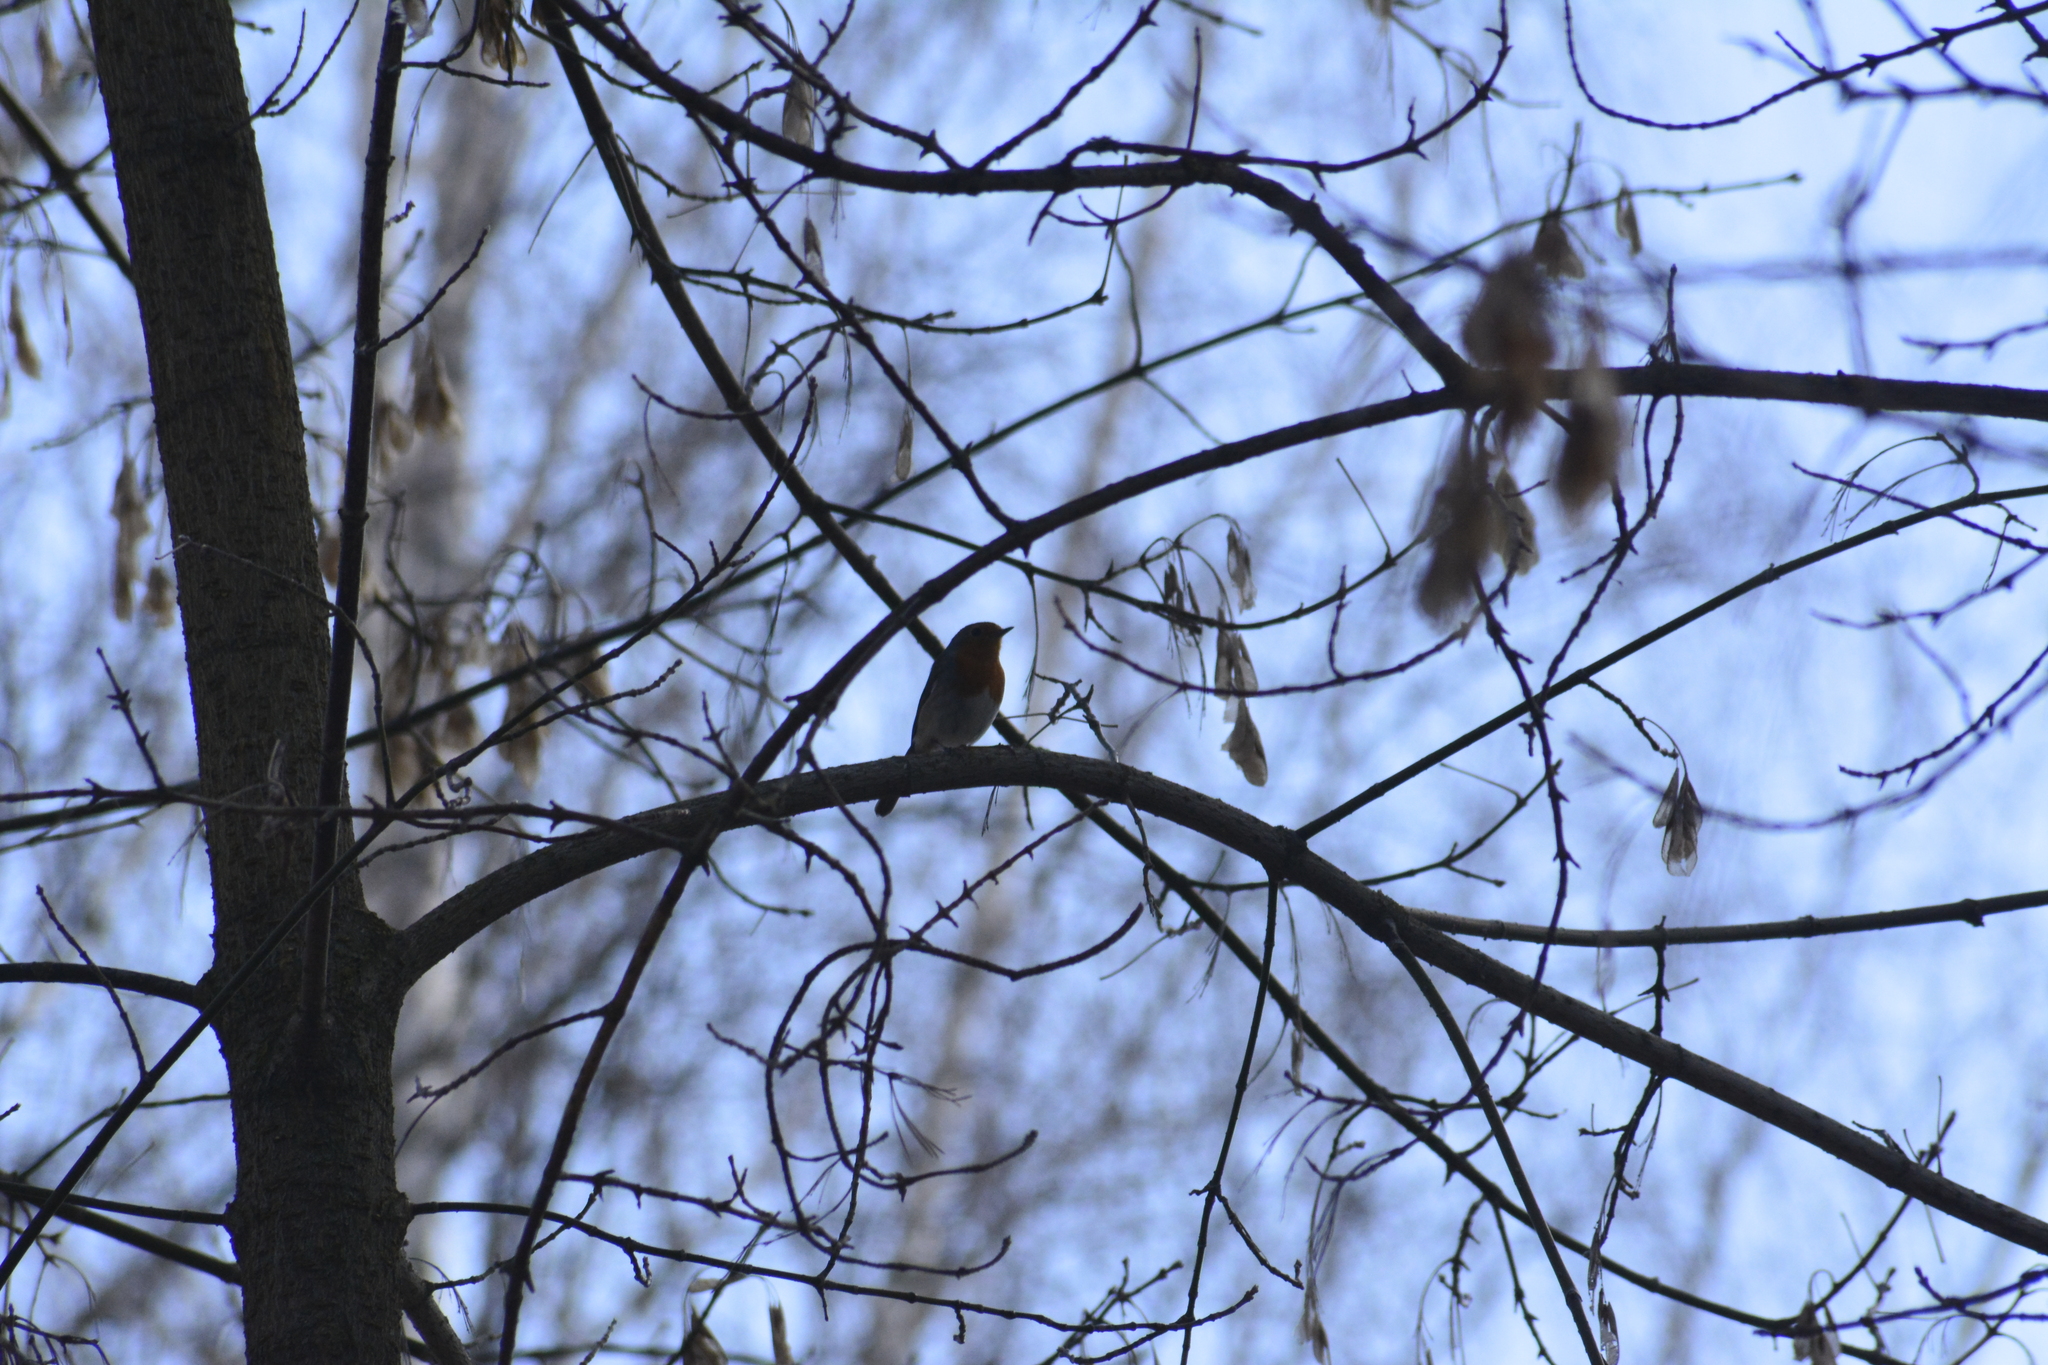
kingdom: Animalia
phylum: Chordata
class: Aves
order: Passeriformes
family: Muscicapidae
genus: Erithacus
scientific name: Erithacus rubecula
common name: European robin
